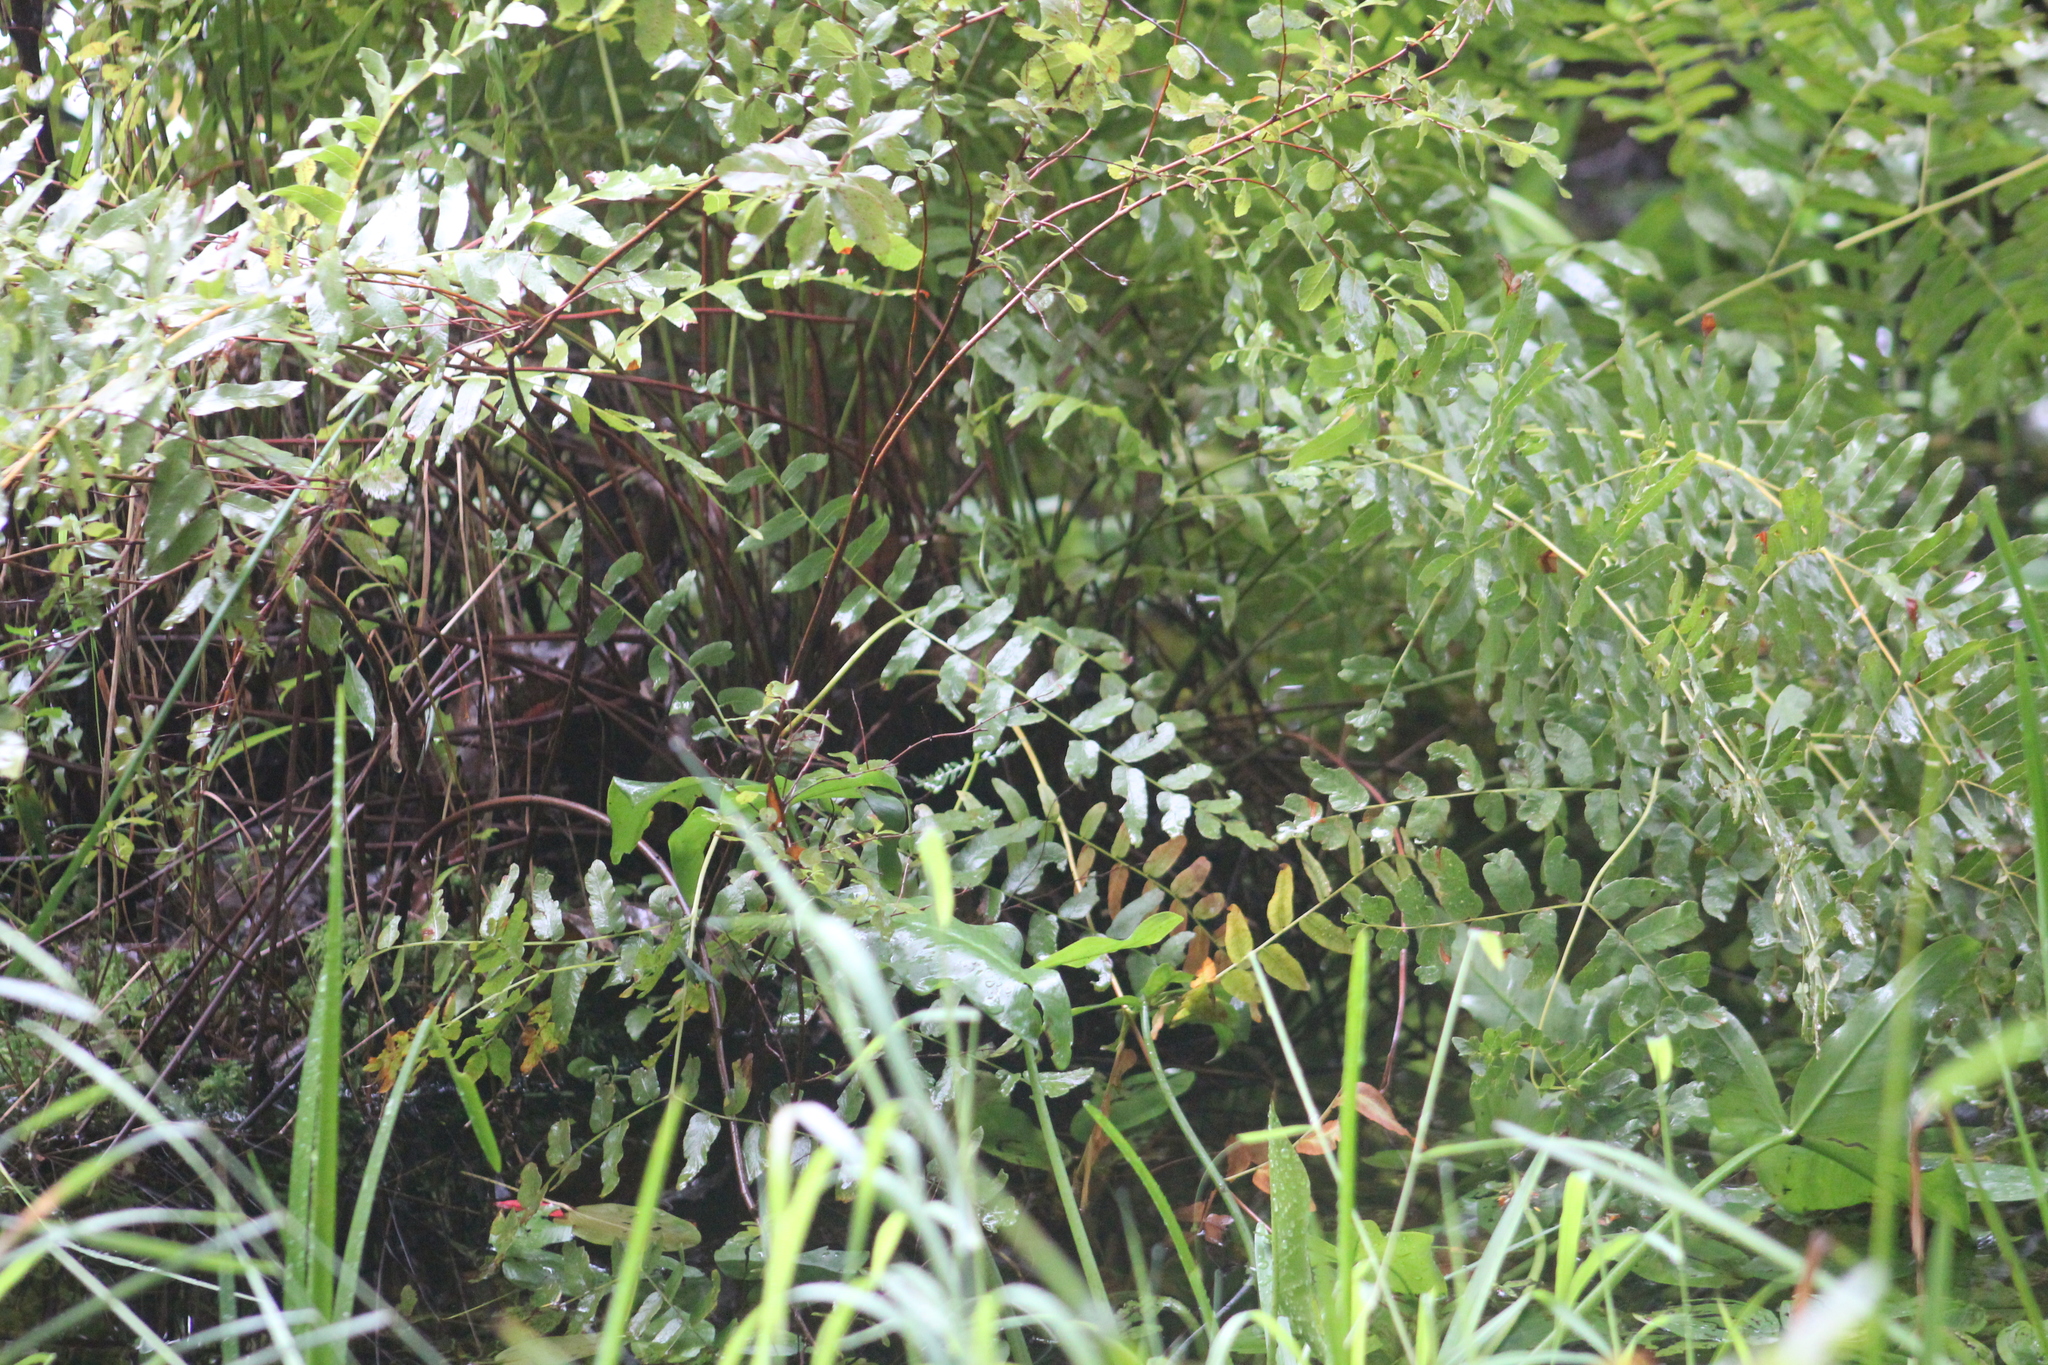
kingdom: Plantae
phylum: Tracheophyta
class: Polypodiopsida
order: Osmundales
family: Osmundaceae
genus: Osmunda
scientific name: Osmunda spectabilis
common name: American royal fern
